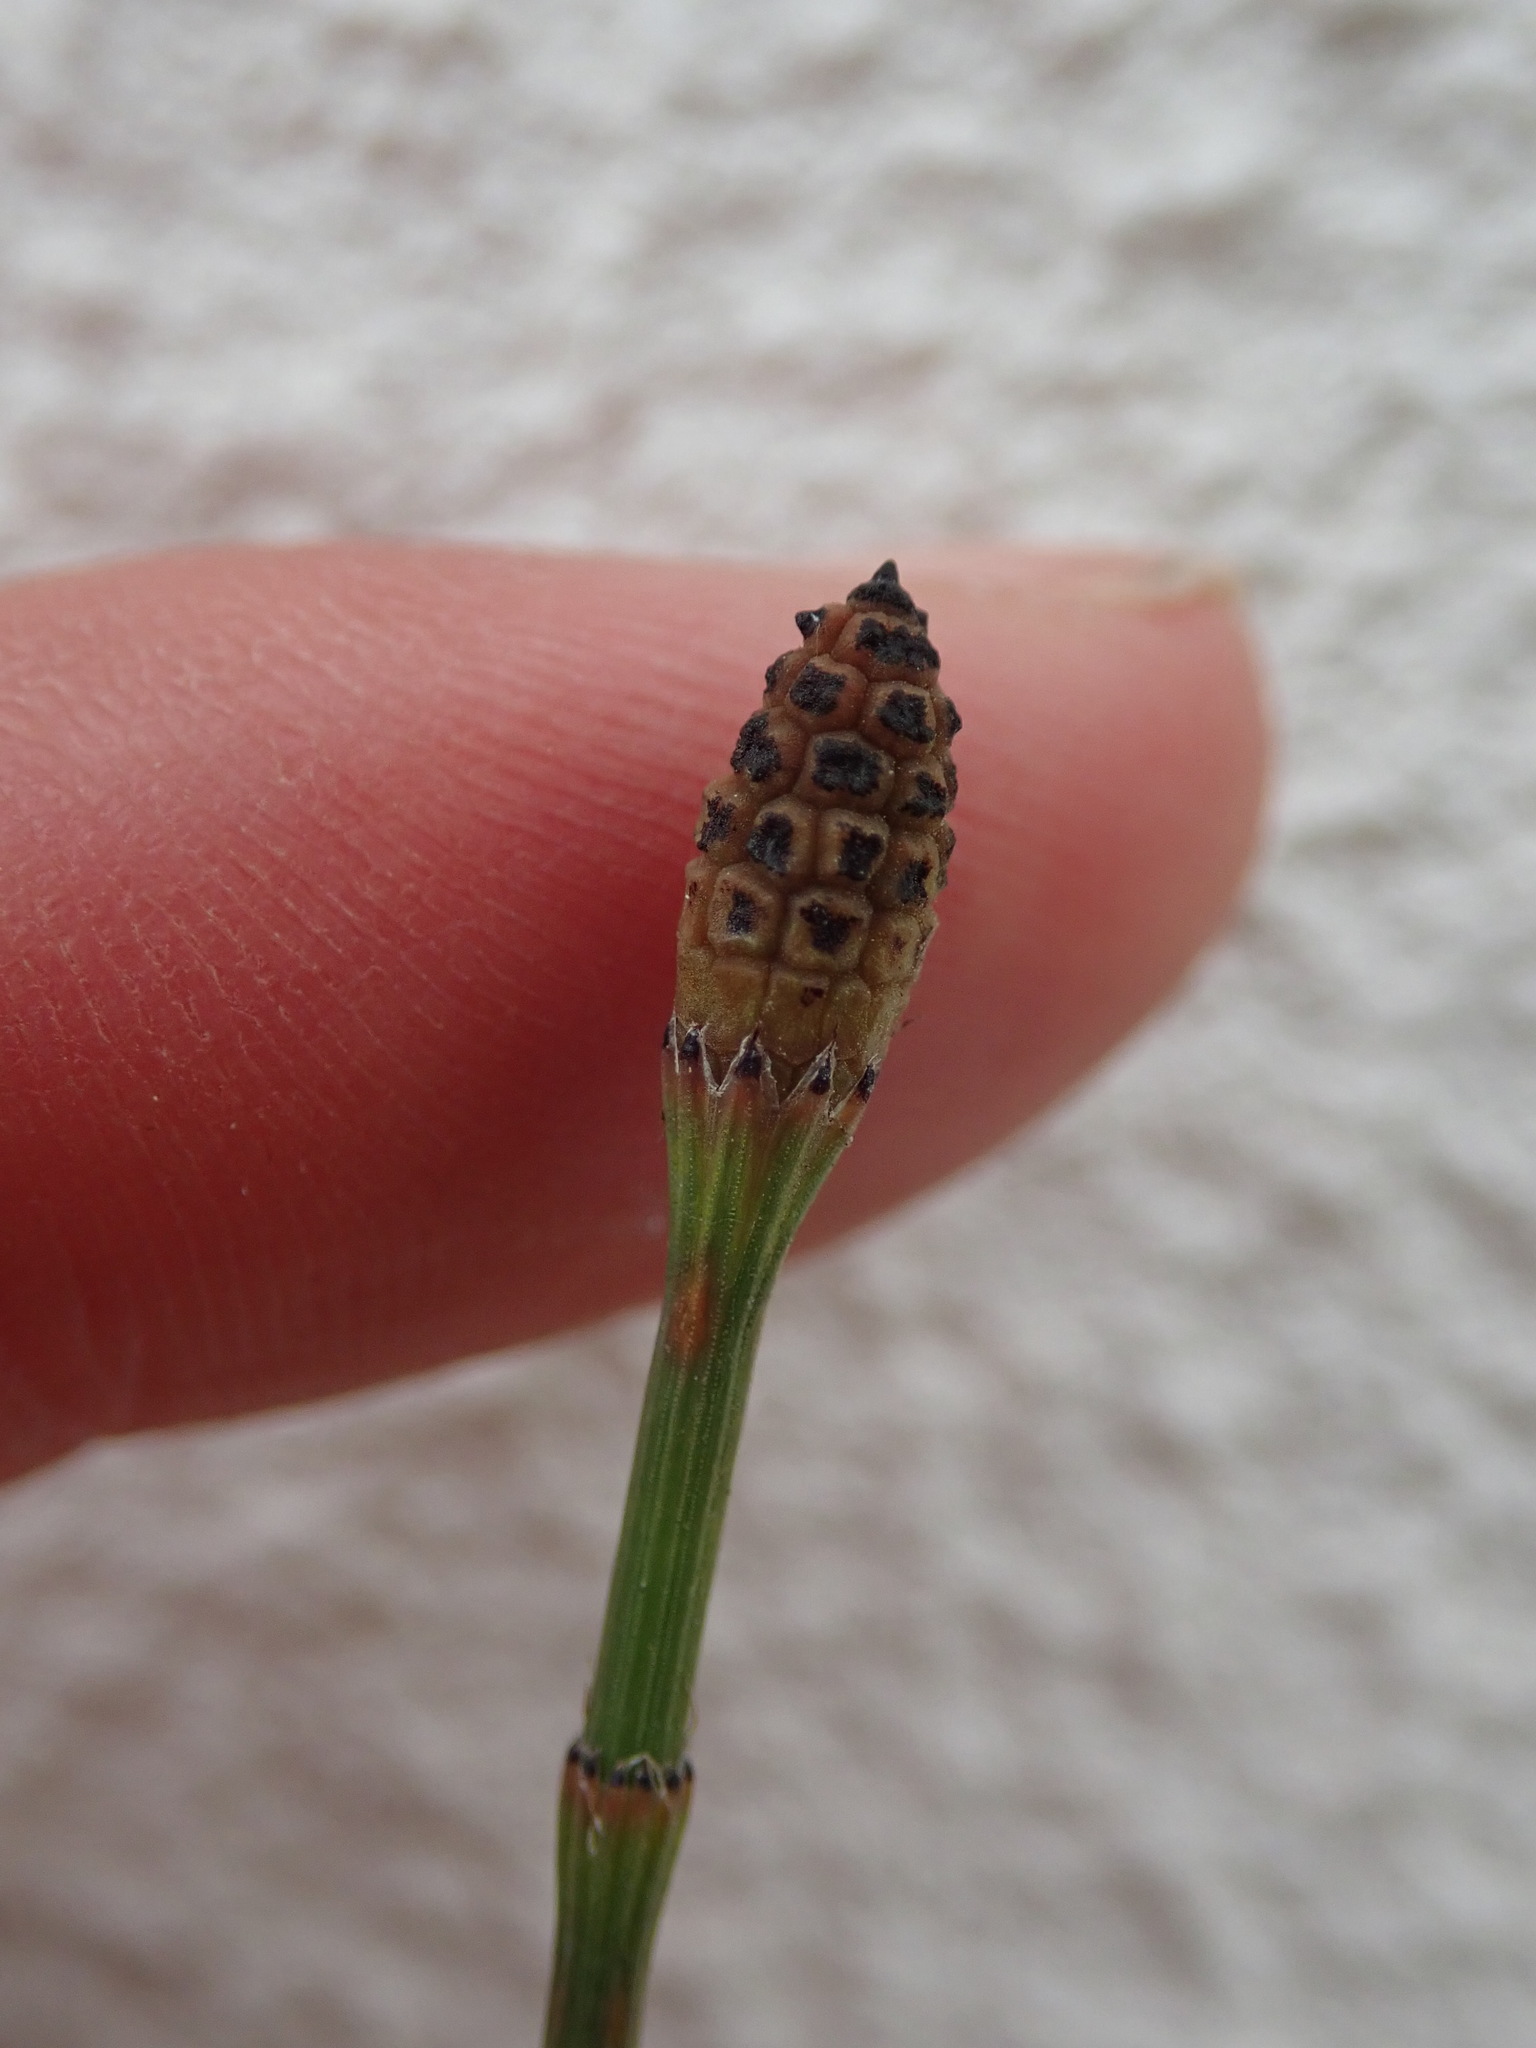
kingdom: Plantae
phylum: Tracheophyta
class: Polypodiopsida
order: Equisetales
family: Equisetaceae
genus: Equisetum
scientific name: Equisetum ramosissimum
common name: Branched horsetail
